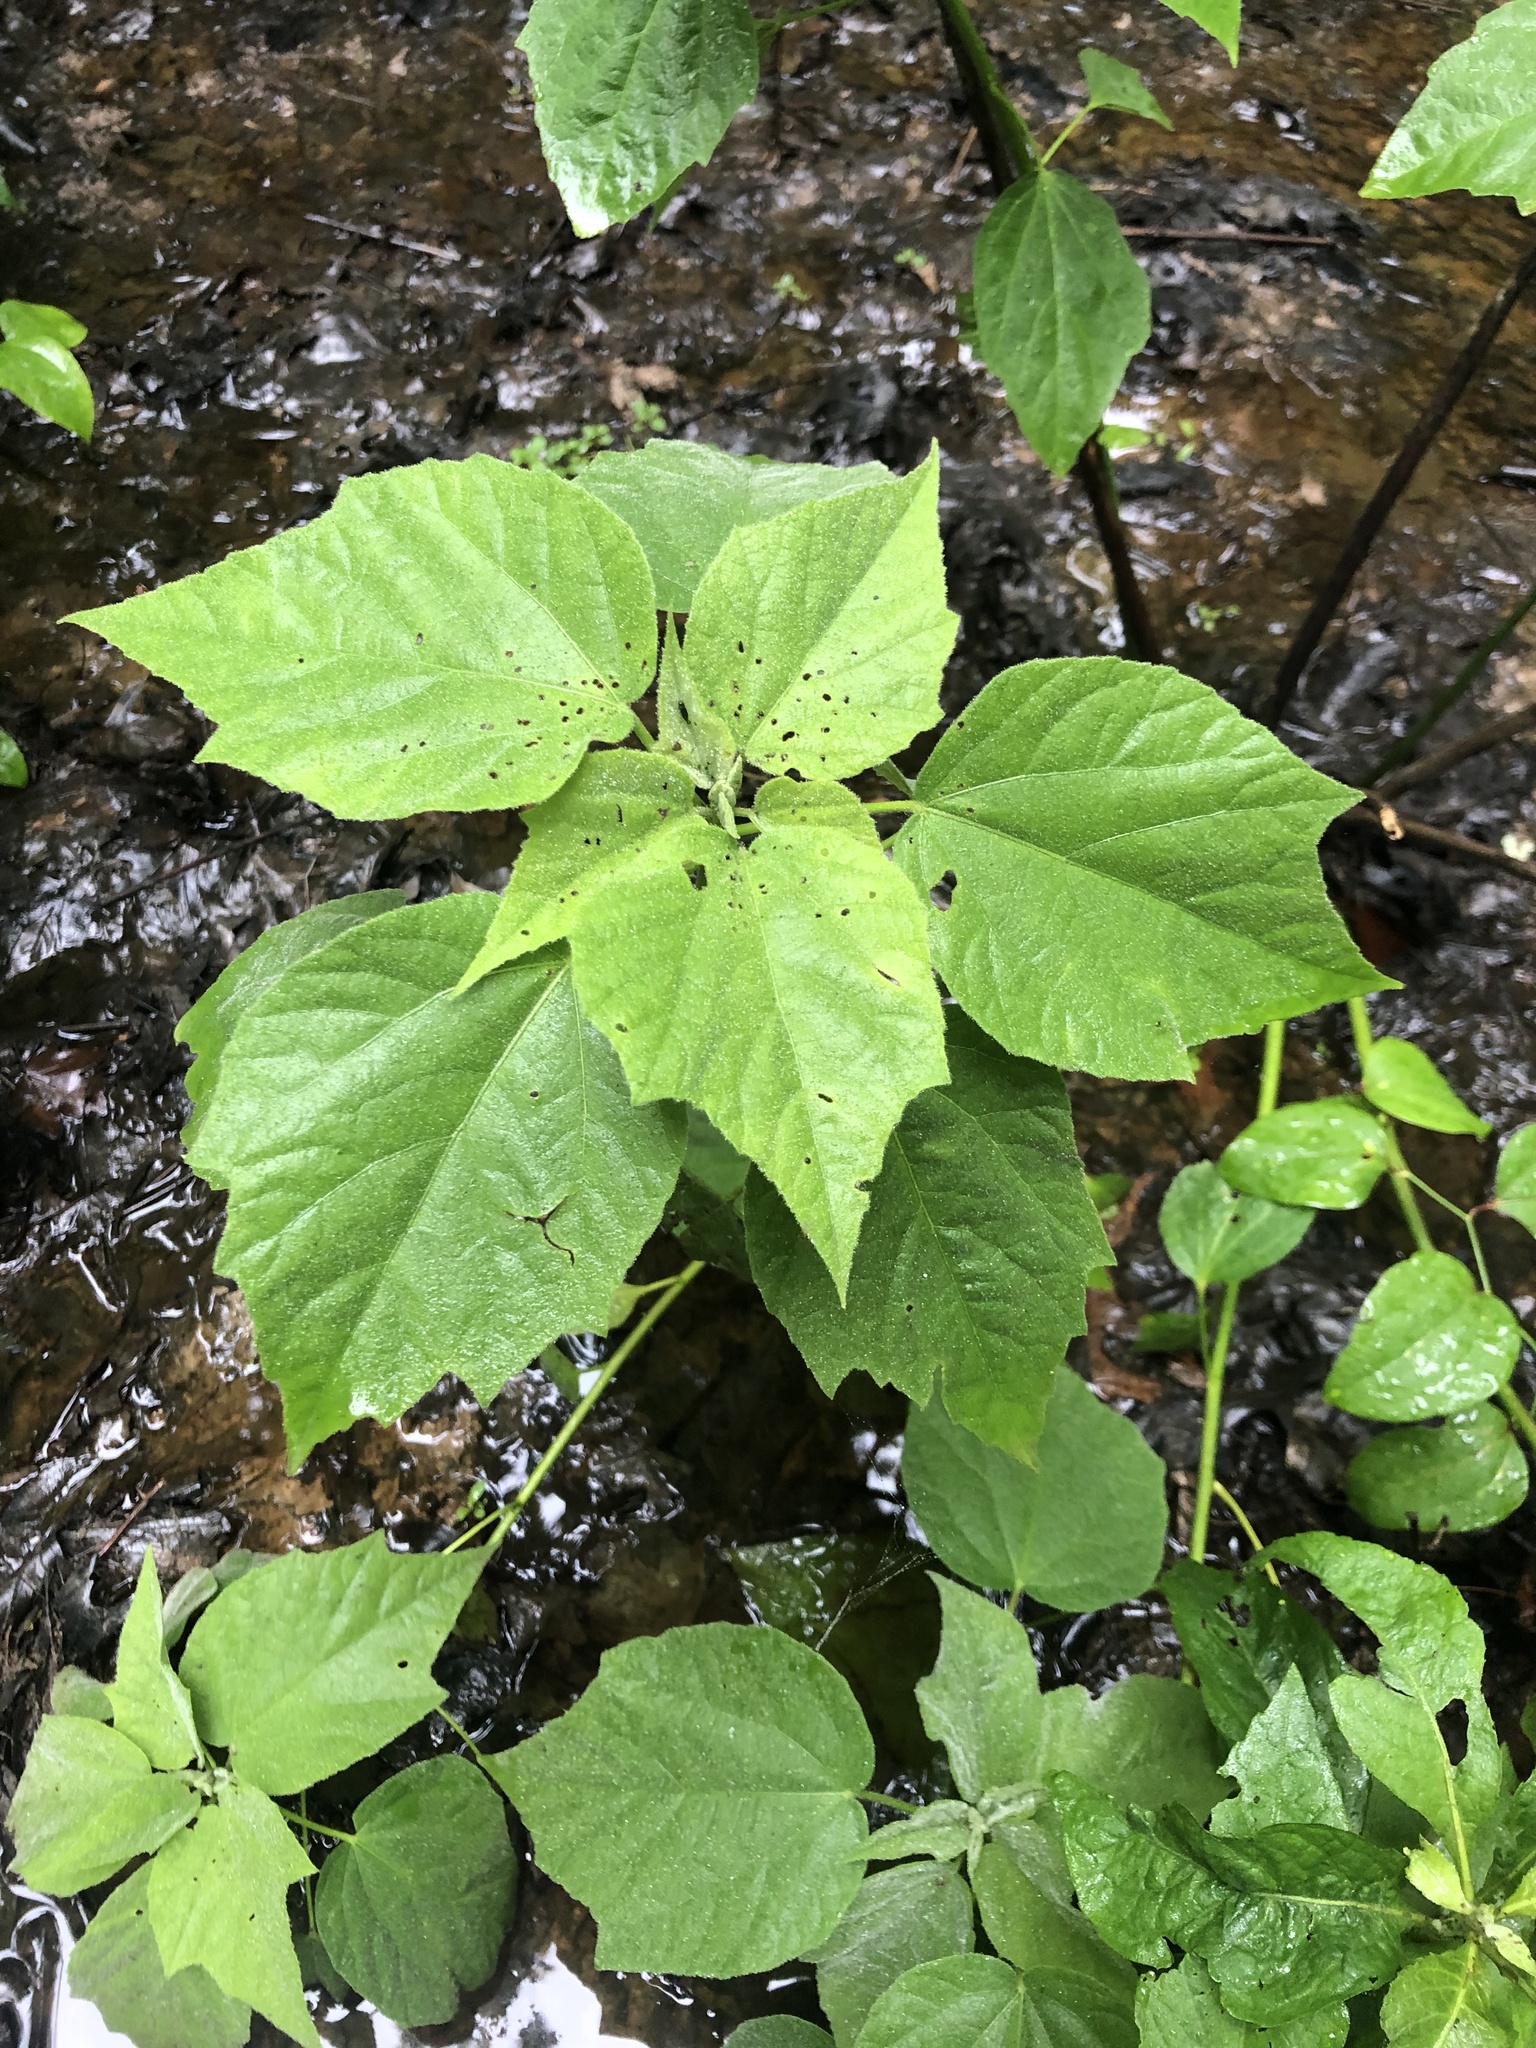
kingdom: Plantae
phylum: Tracheophyta
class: Magnoliopsida
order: Malvales
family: Malvaceae
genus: Hibiscus
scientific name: Hibiscus moscheutos
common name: Common rose-mallow
